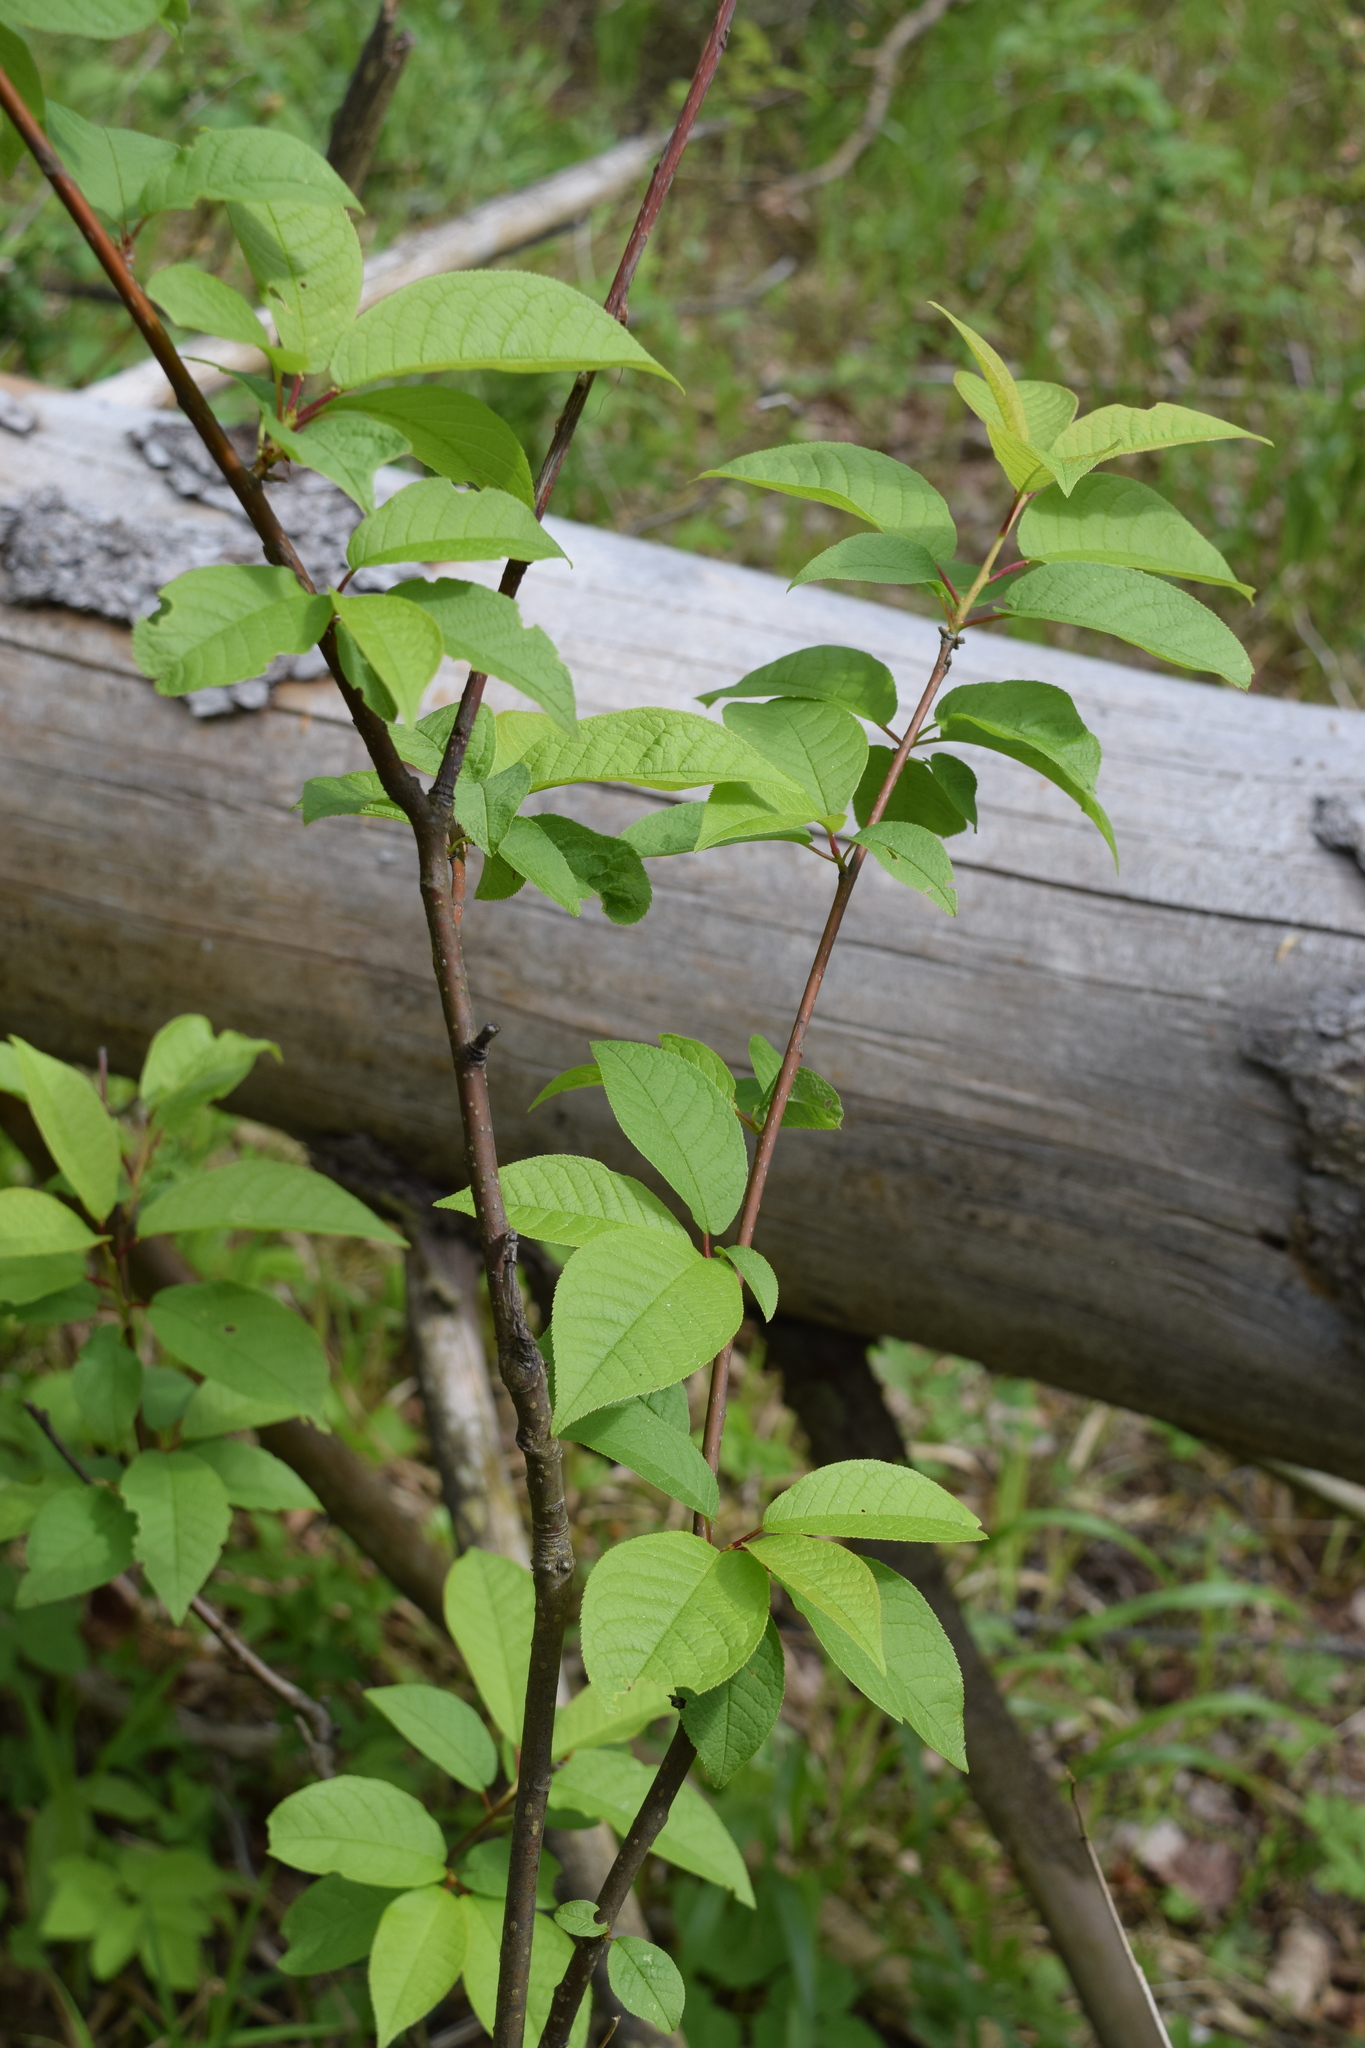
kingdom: Plantae
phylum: Tracheophyta
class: Magnoliopsida
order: Rosales
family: Rosaceae
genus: Prunus
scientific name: Prunus padus
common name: Bird cherry
